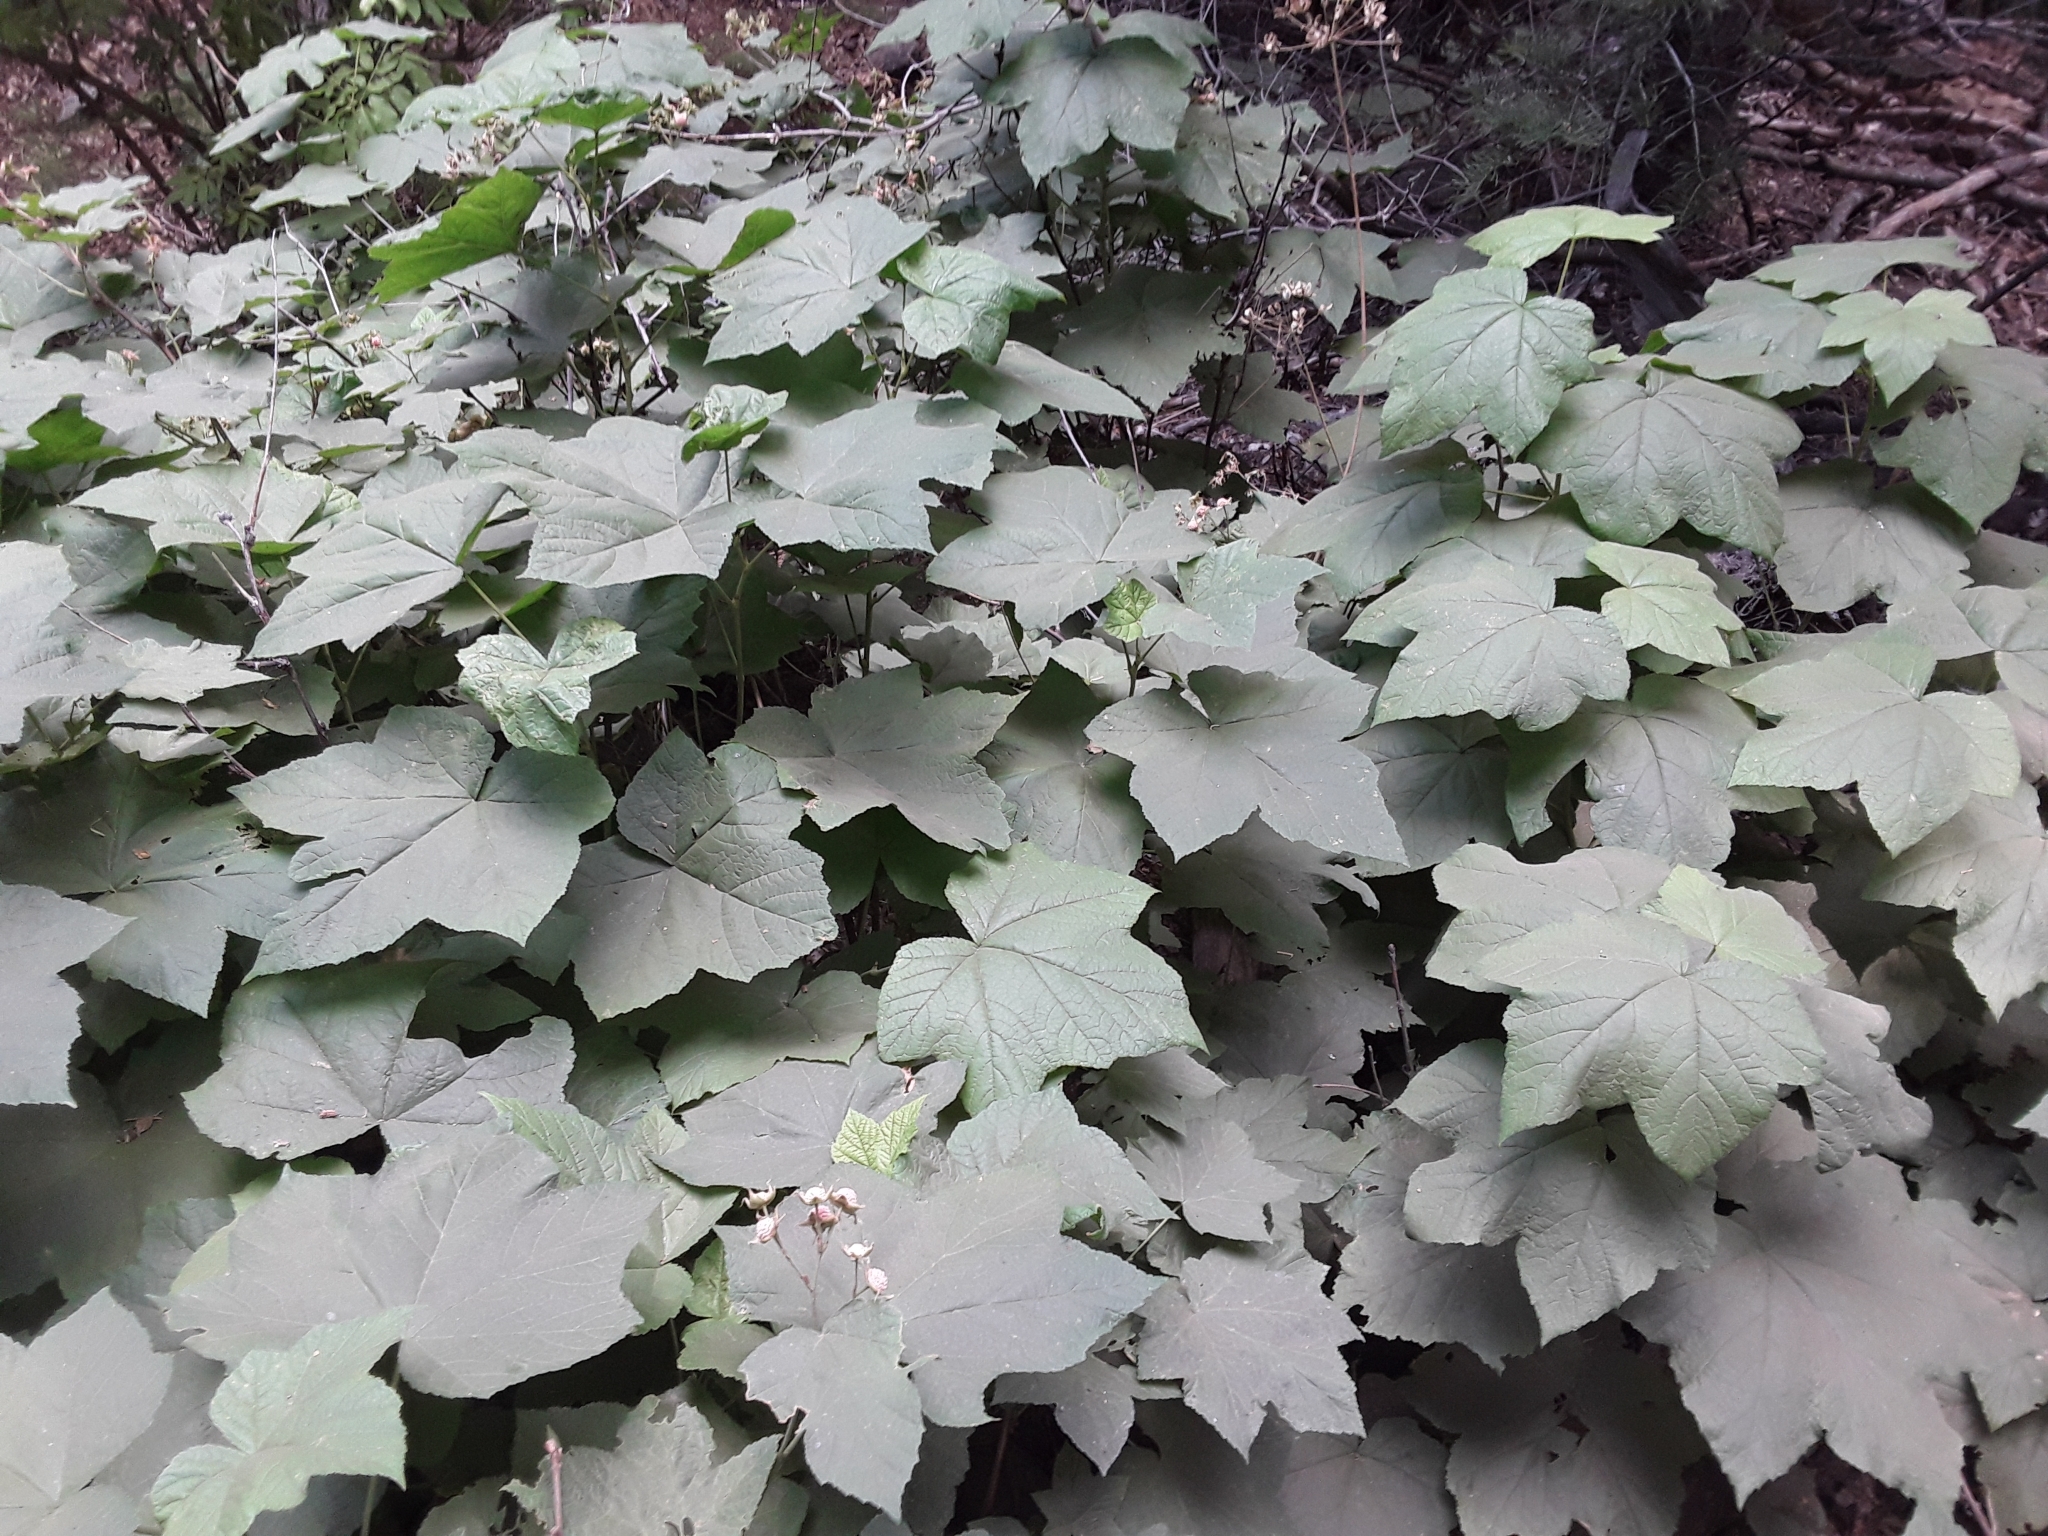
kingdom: Plantae
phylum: Tracheophyta
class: Magnoliopsida
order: Rosales
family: Rosaceae
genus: Rubus
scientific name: Rubus parviflorus
